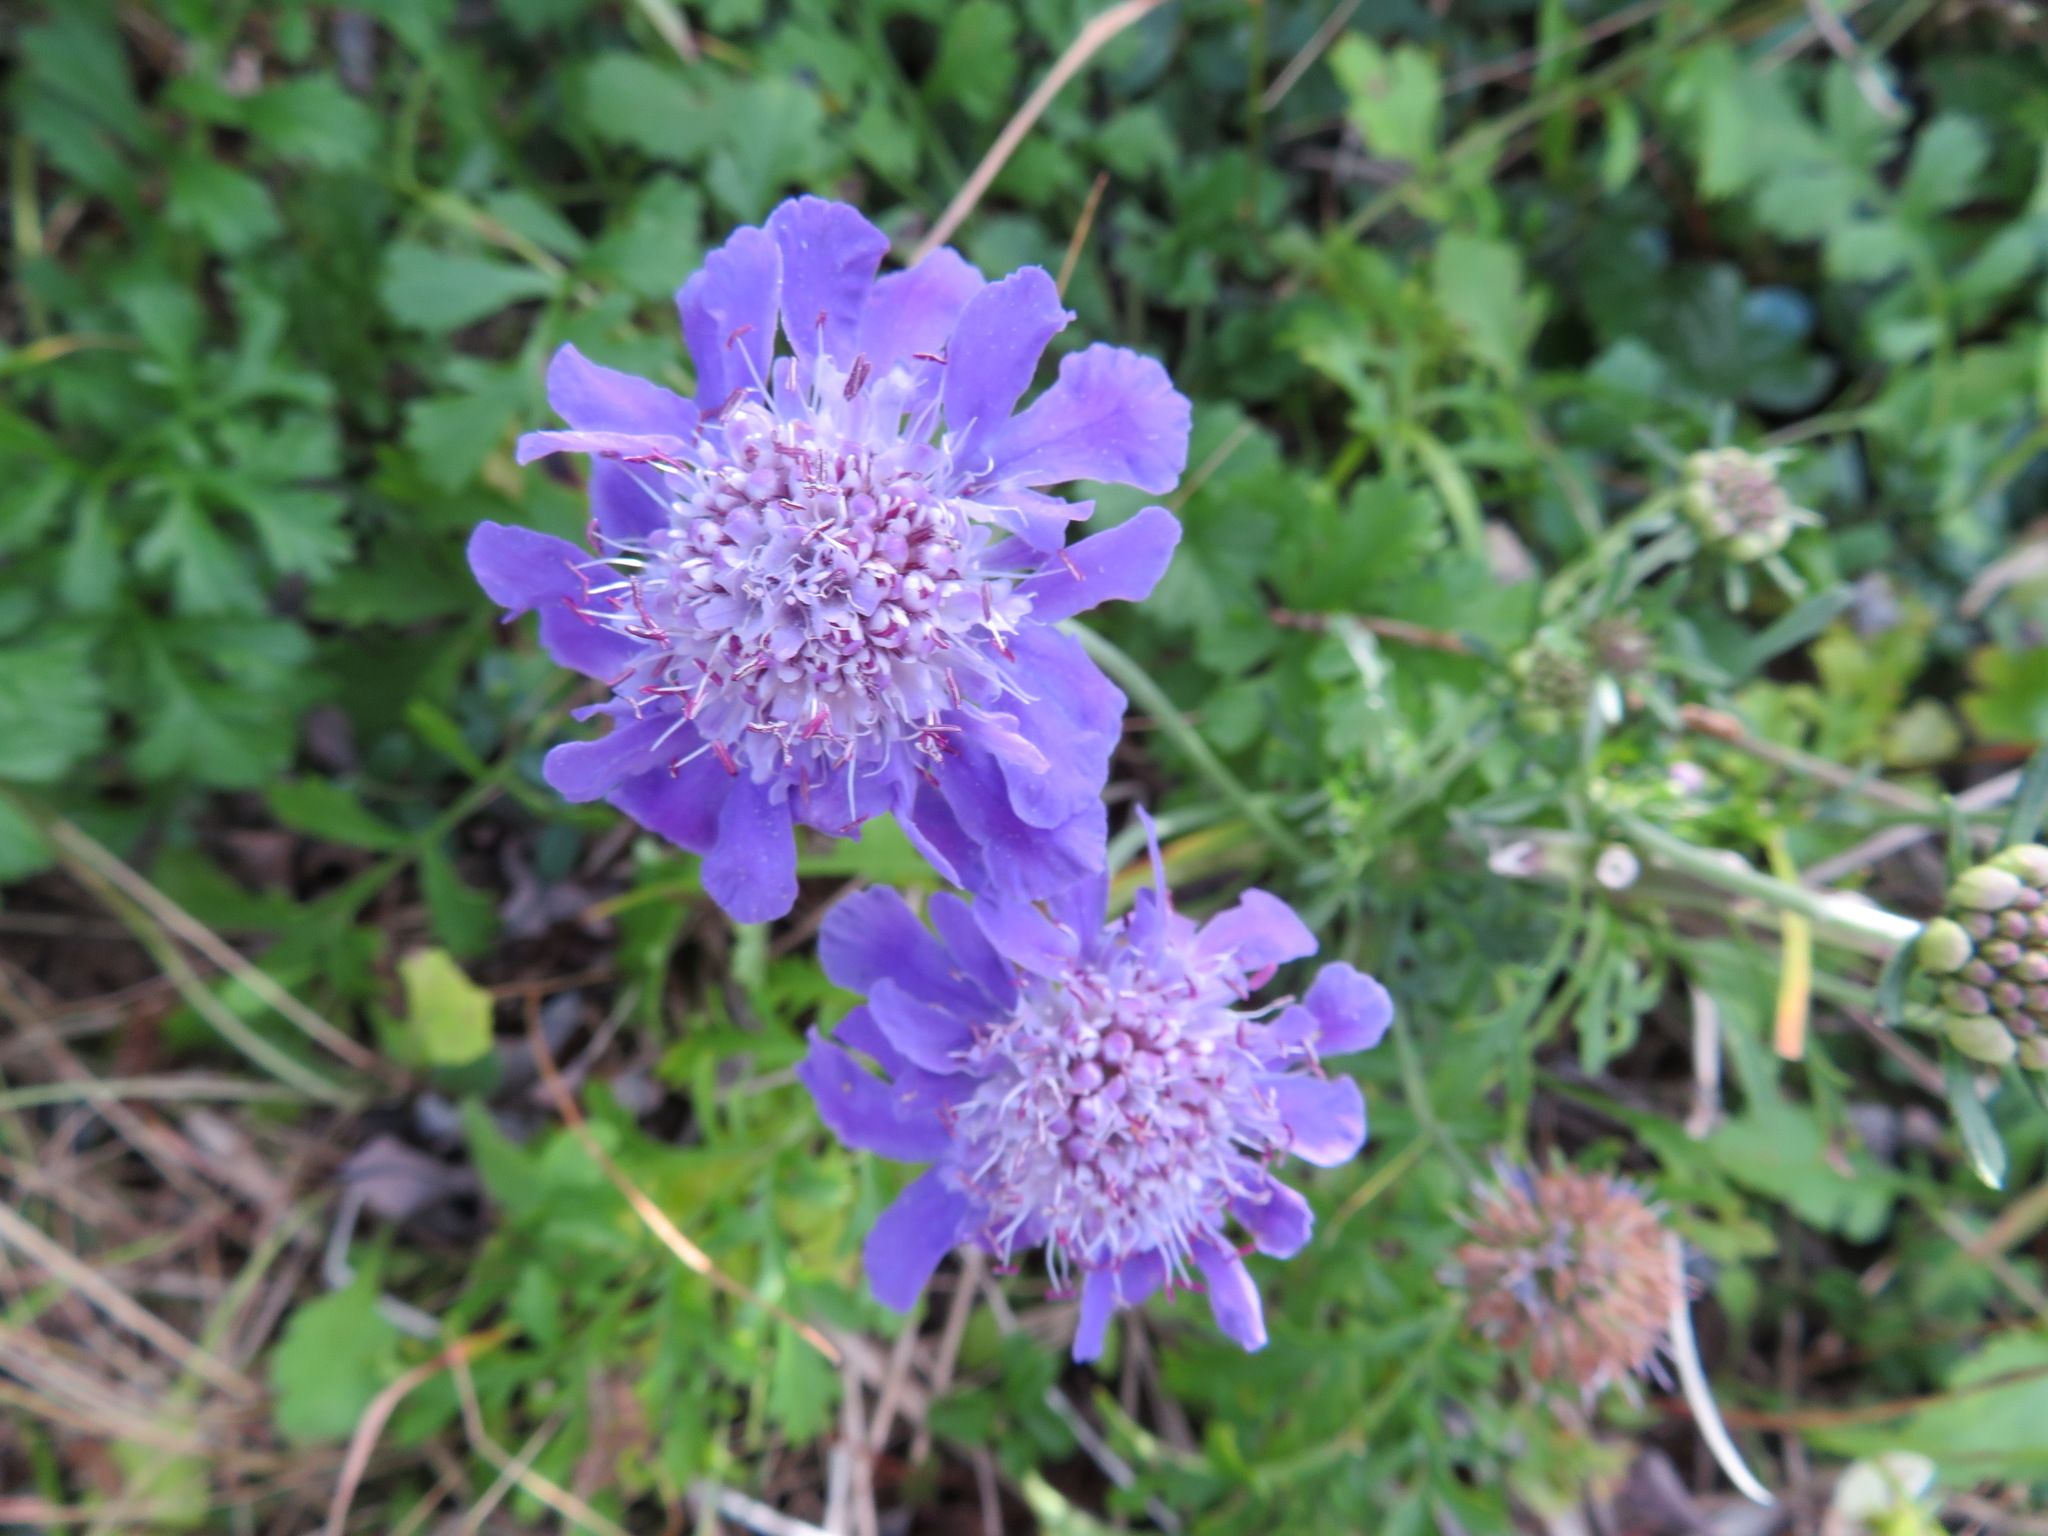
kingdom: Plantae
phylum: Tracheophyta
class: Magnoliopsida
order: Dipsacales
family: Caprifoliaceae
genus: Scabiosa
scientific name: Scabiosa japonica
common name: Pincushion-flower
